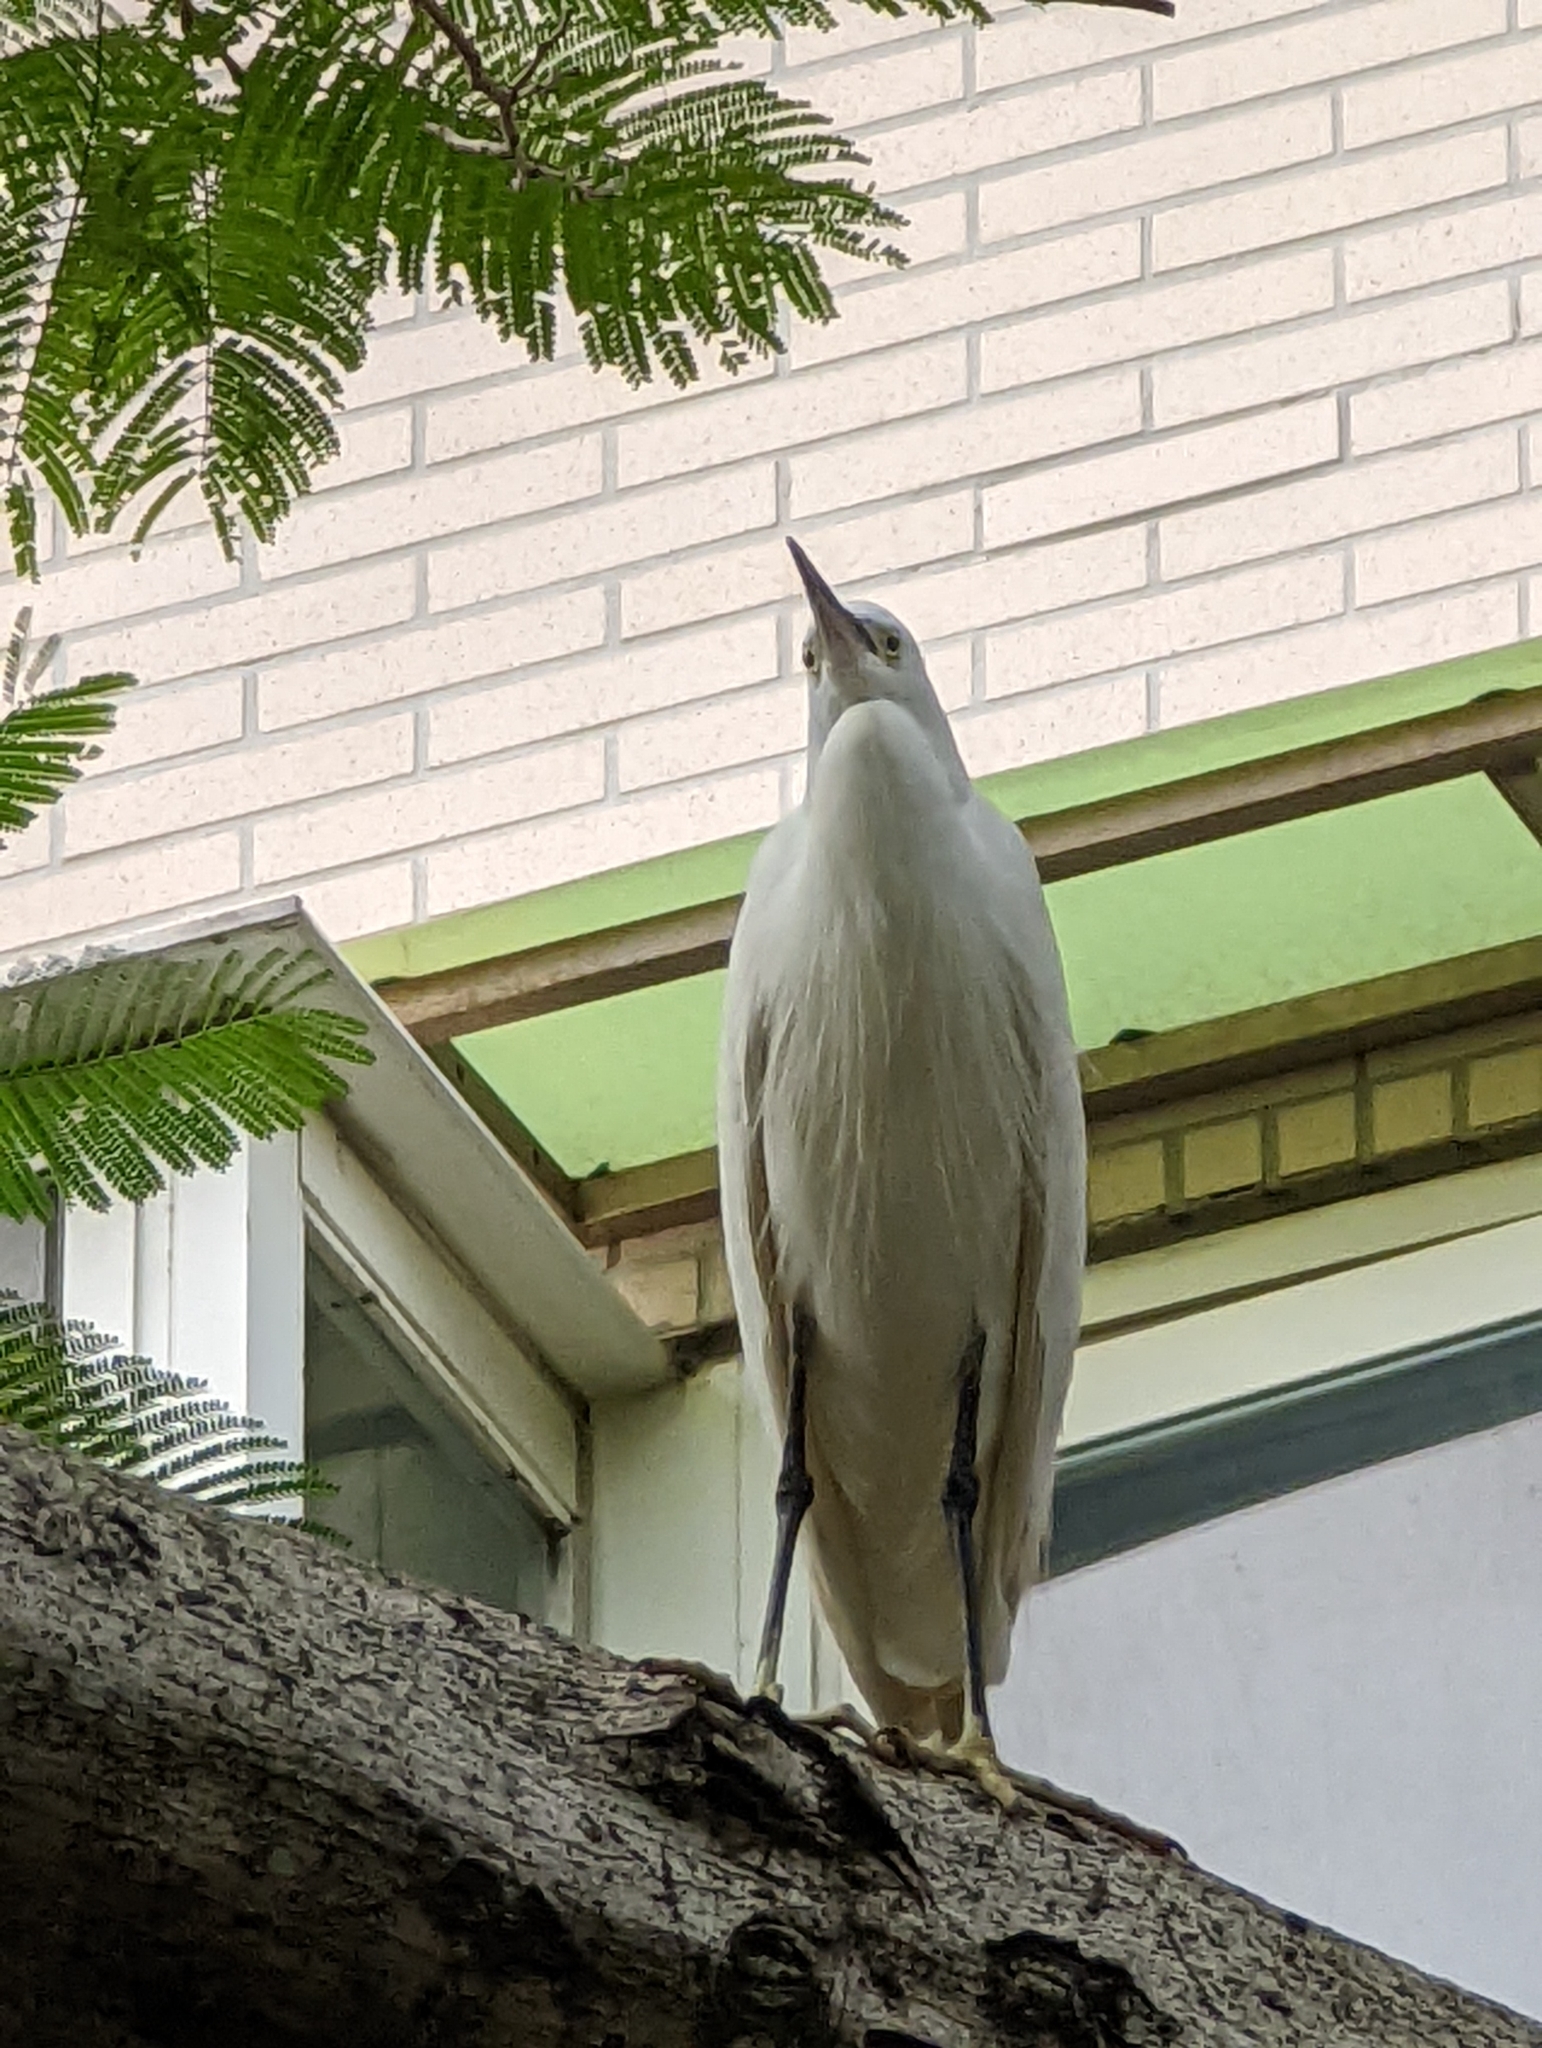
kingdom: Animalia
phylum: Chordata
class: Aves
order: Pelecaniformes
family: Ardeidae
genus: Egretta
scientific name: Egretta garzetta
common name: Little egret
